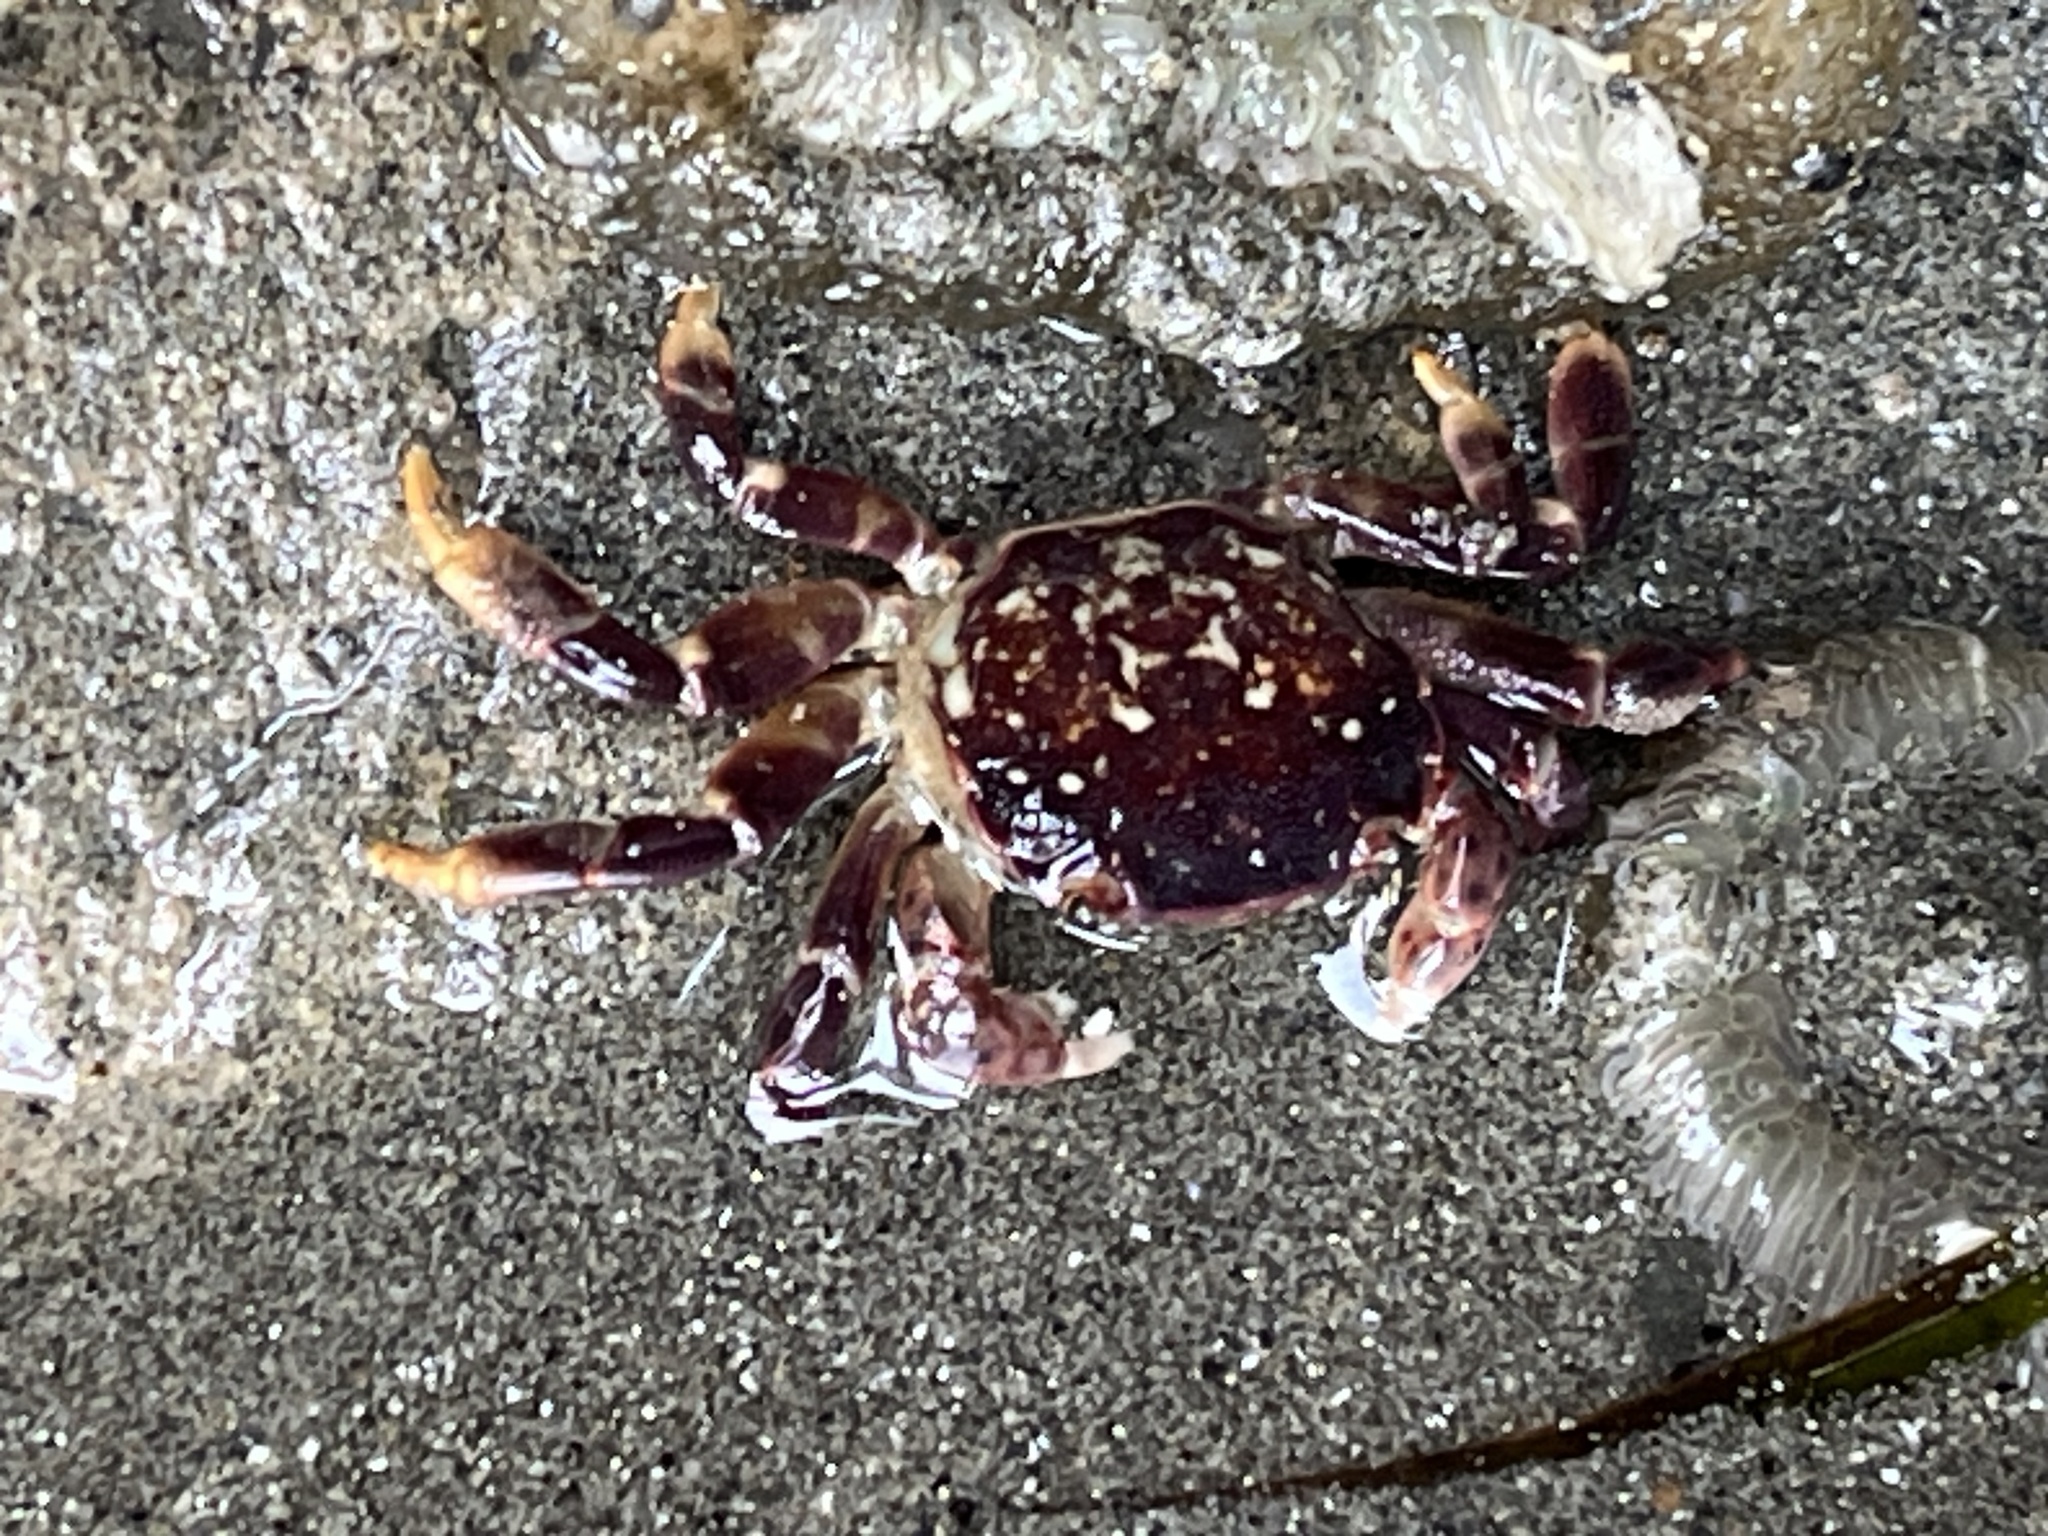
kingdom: Animalia
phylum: Arthropoda
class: Malacostraca
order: Decapoda
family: Varunidae
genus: Hemigrapsus
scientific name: Hemigrapsus nudus
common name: Purple shore crab
